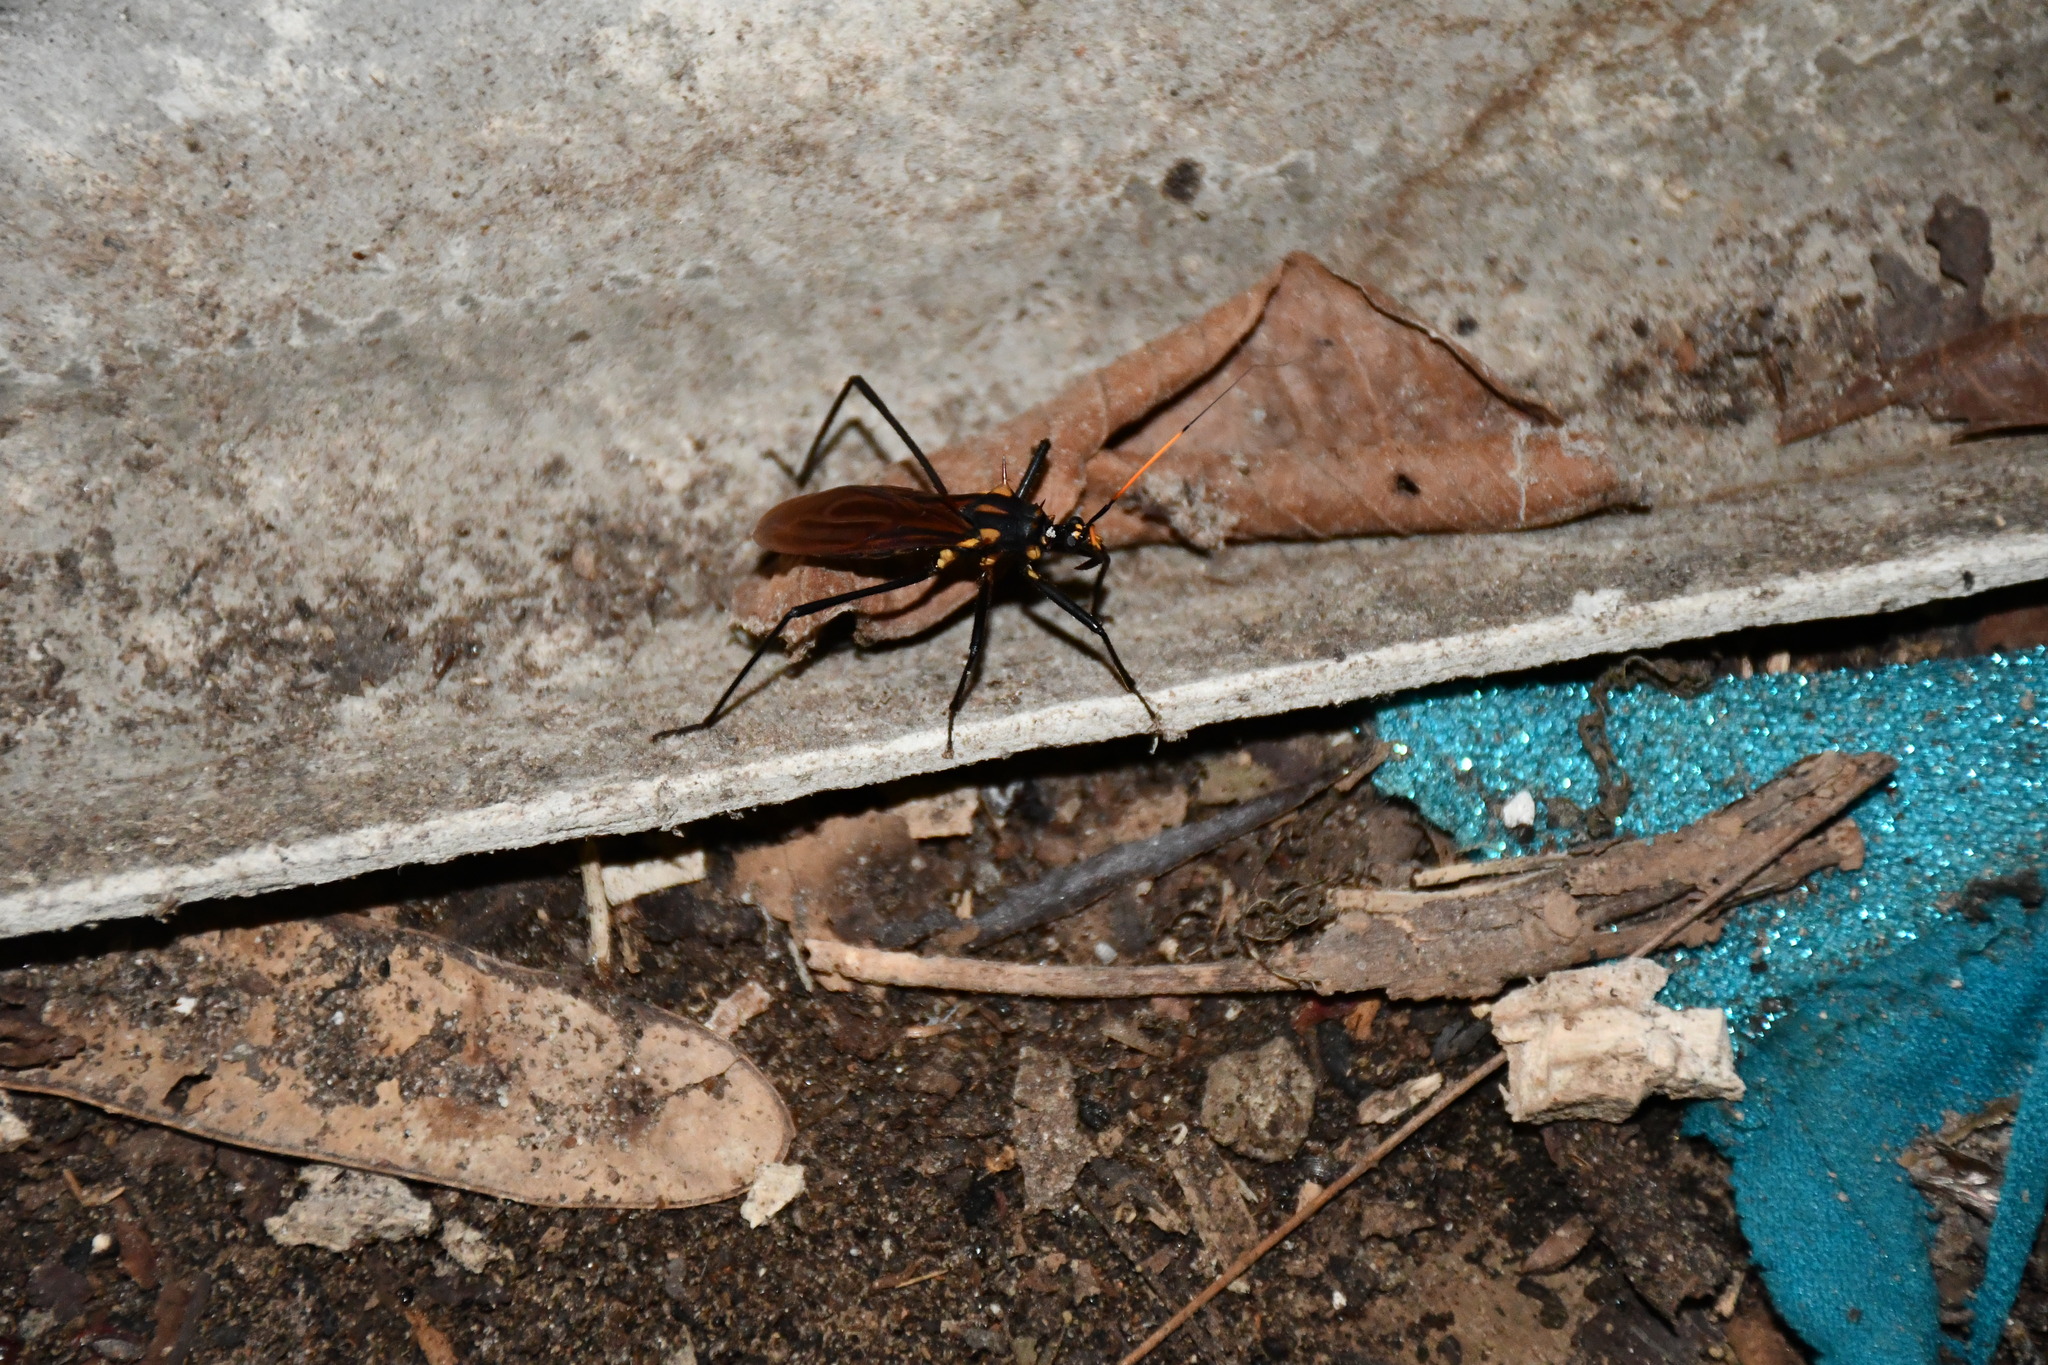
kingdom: Animalia
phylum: Arthropoda
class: Insecta
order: Hemiptera
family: Reduviidae
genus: Zelurus
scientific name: Zelurus festivus
